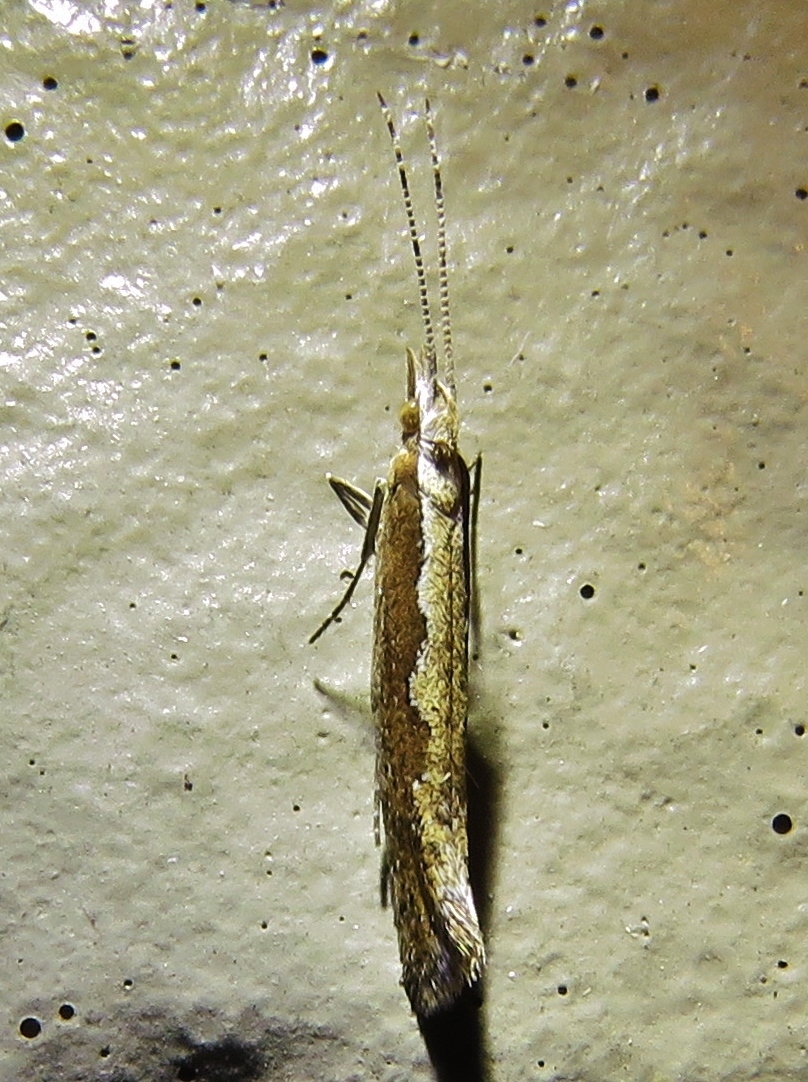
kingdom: Animalia
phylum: Arthropoda
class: Insecta
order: Lepidoptera
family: Plutellidae
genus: Plutella
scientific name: Plutella xylostella
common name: Diamond-back moth
